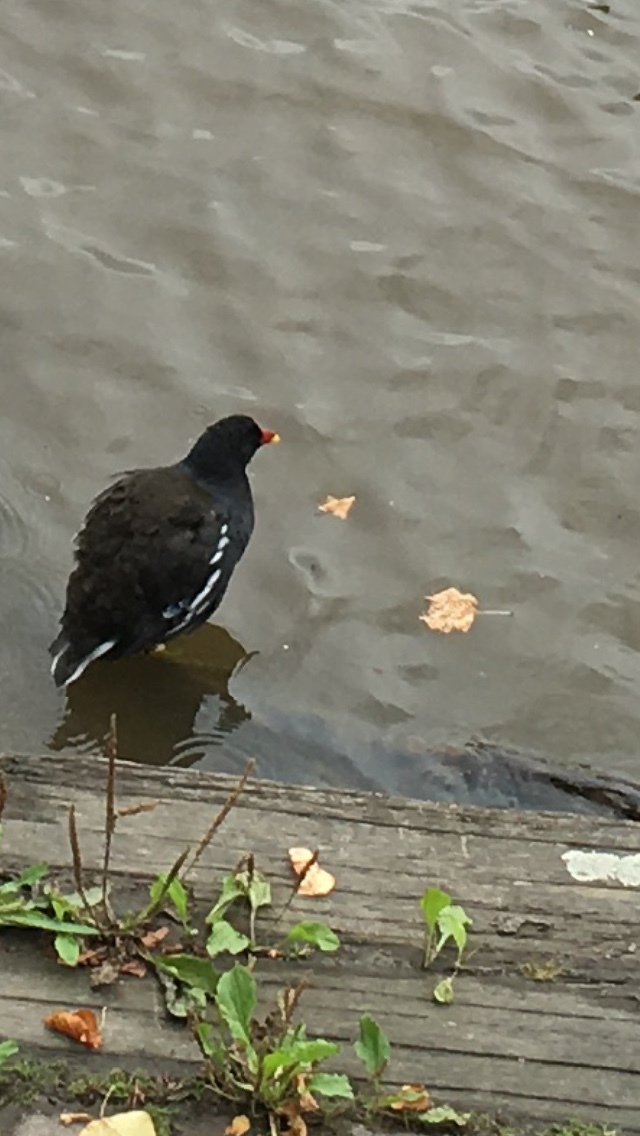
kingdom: Animalia
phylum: Chordata
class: Aves
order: Gruiformes
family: Rallidae
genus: Gallinula
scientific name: Gallinula chloropus
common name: Common moorhen
